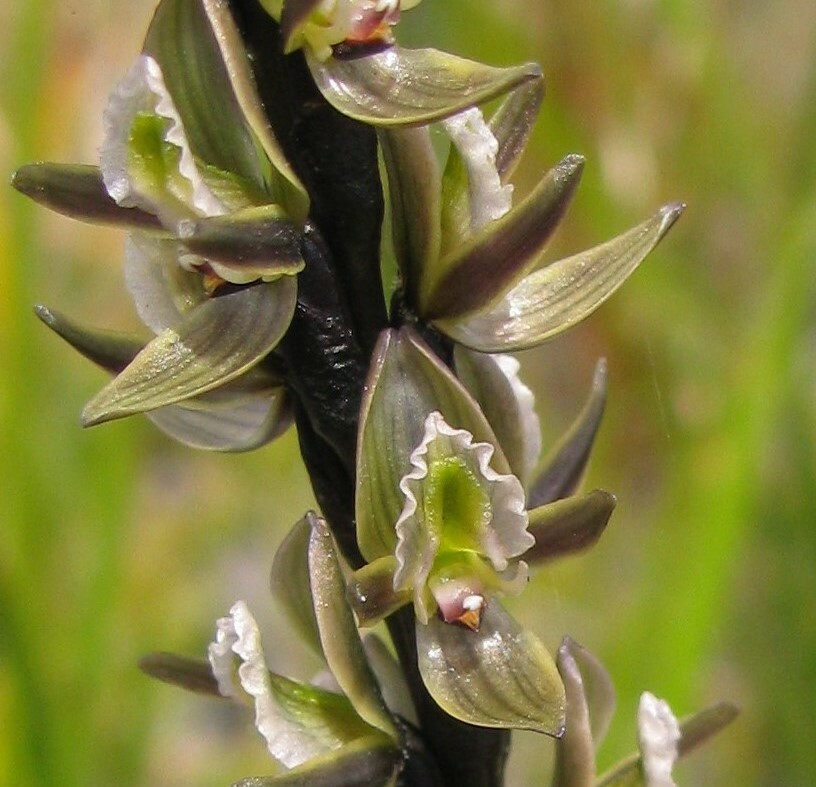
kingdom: Plantae
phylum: Tracheophyta
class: Liliopsida
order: Asparagales
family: Orchidaceae
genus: Prasophyllum
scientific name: Prasophyllum elatum
